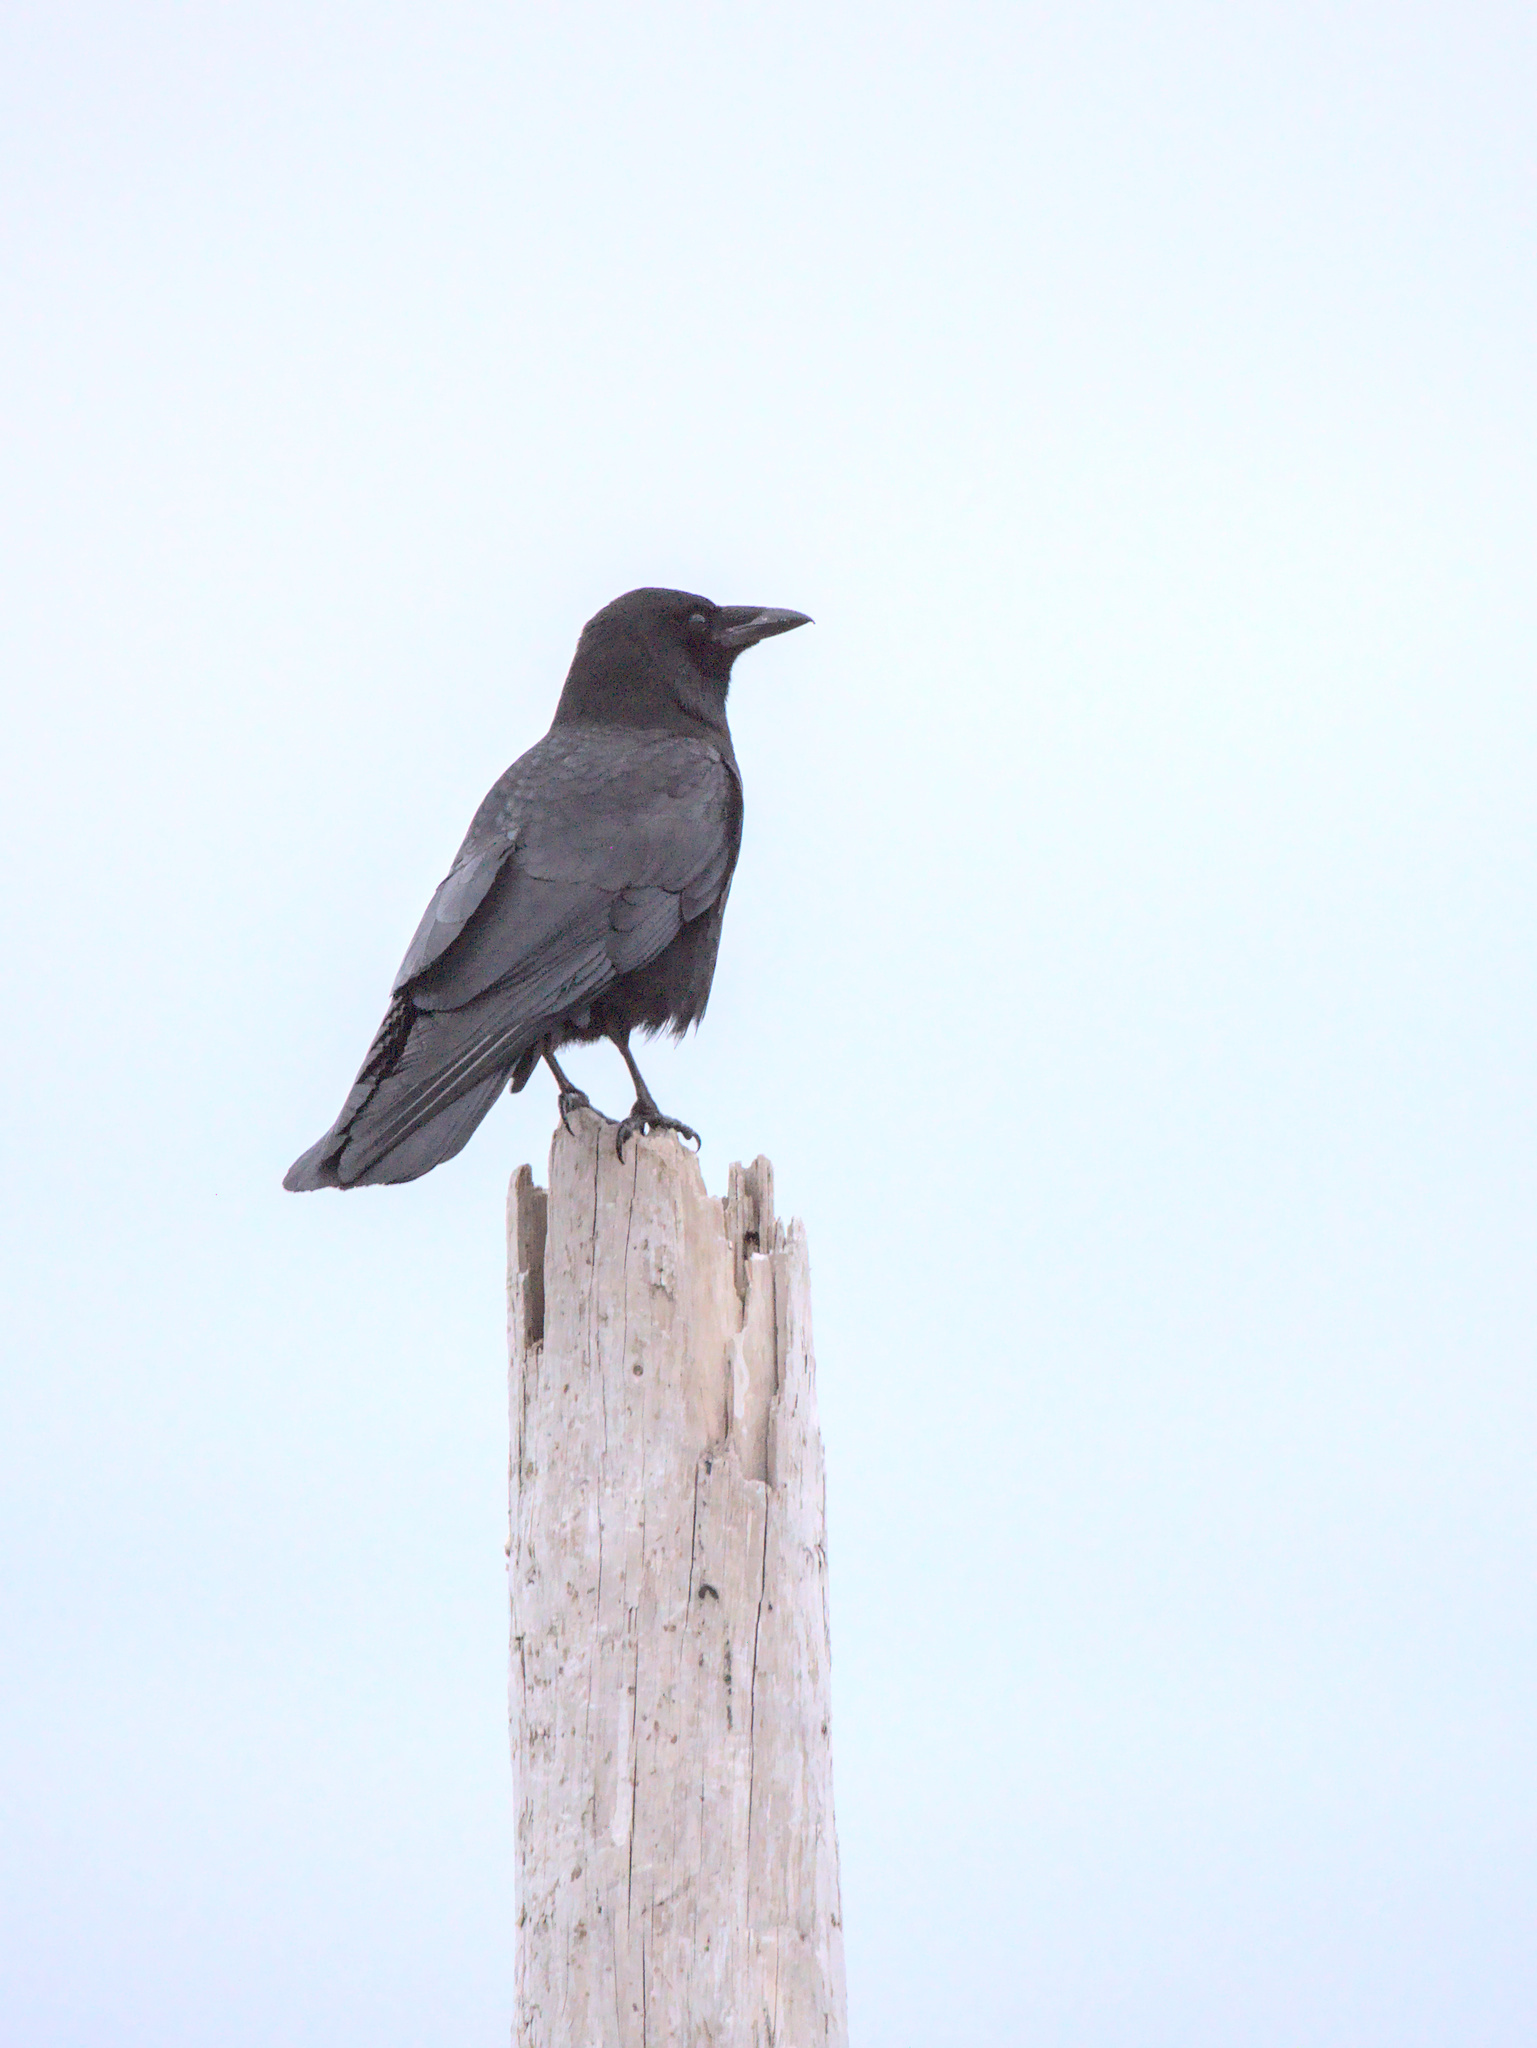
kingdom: Animalia
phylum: Chordata
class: Aves
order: Passeriformes
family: Corvidae
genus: Corvus
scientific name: Corvus brachyrhynchos
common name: American crow
